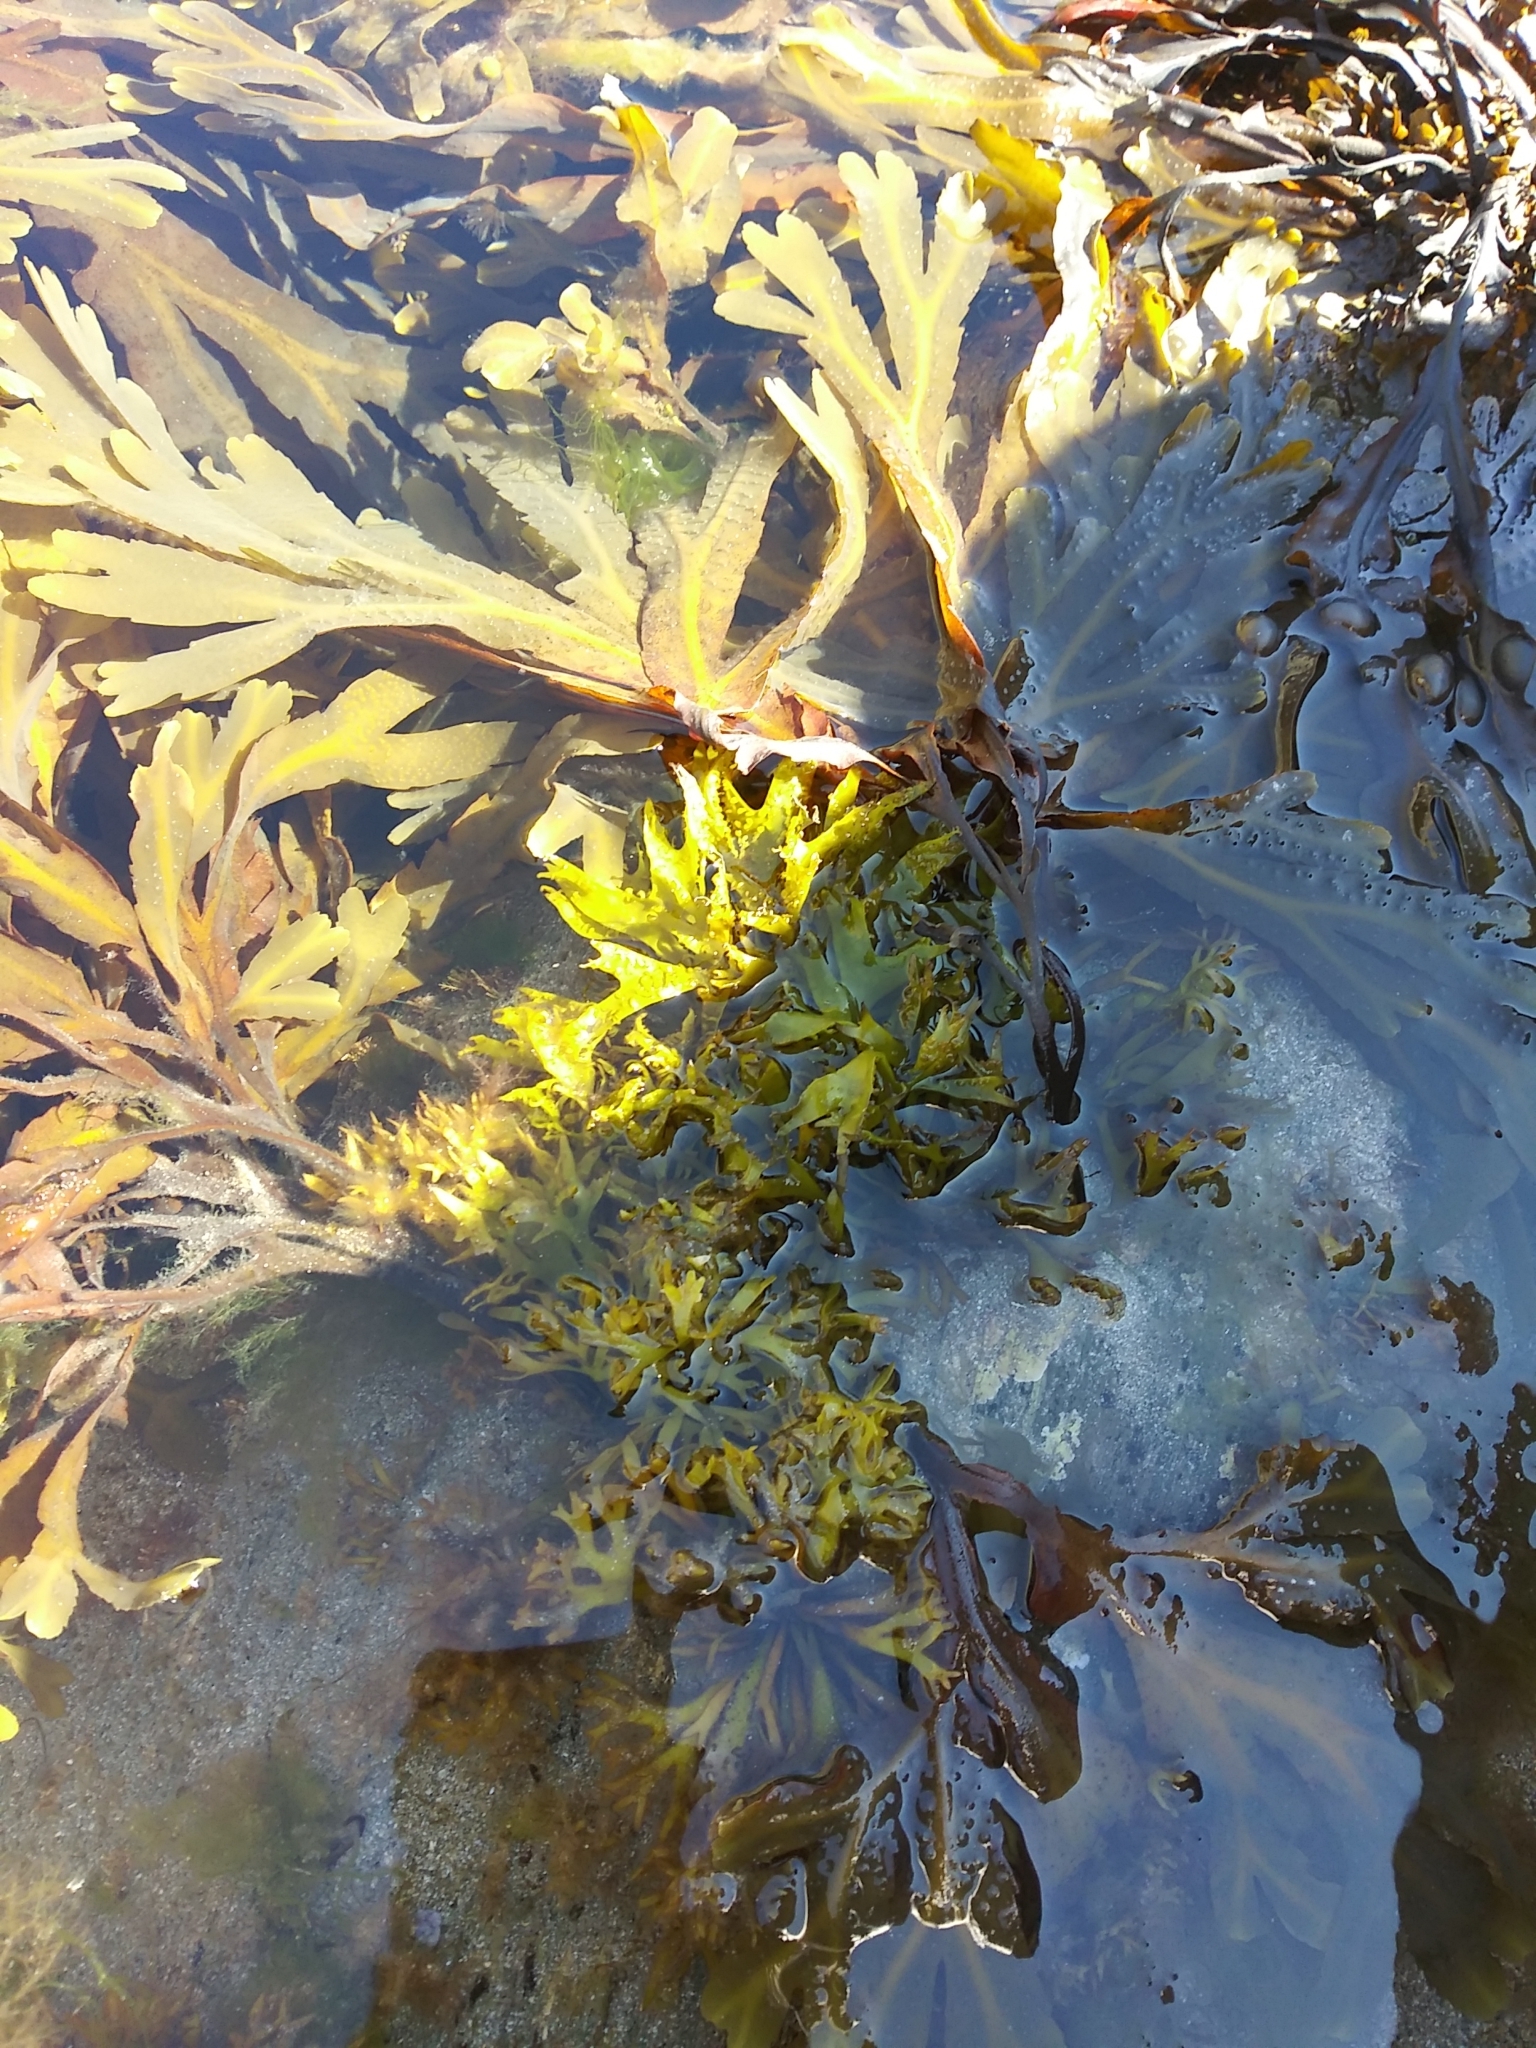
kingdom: Plantae
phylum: Rhodophyta
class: Florideophyceae
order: Gigartinales
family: Phyllophoraceae
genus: Mastocarpus
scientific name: Mastocarpus stellatus
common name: False irish moss
